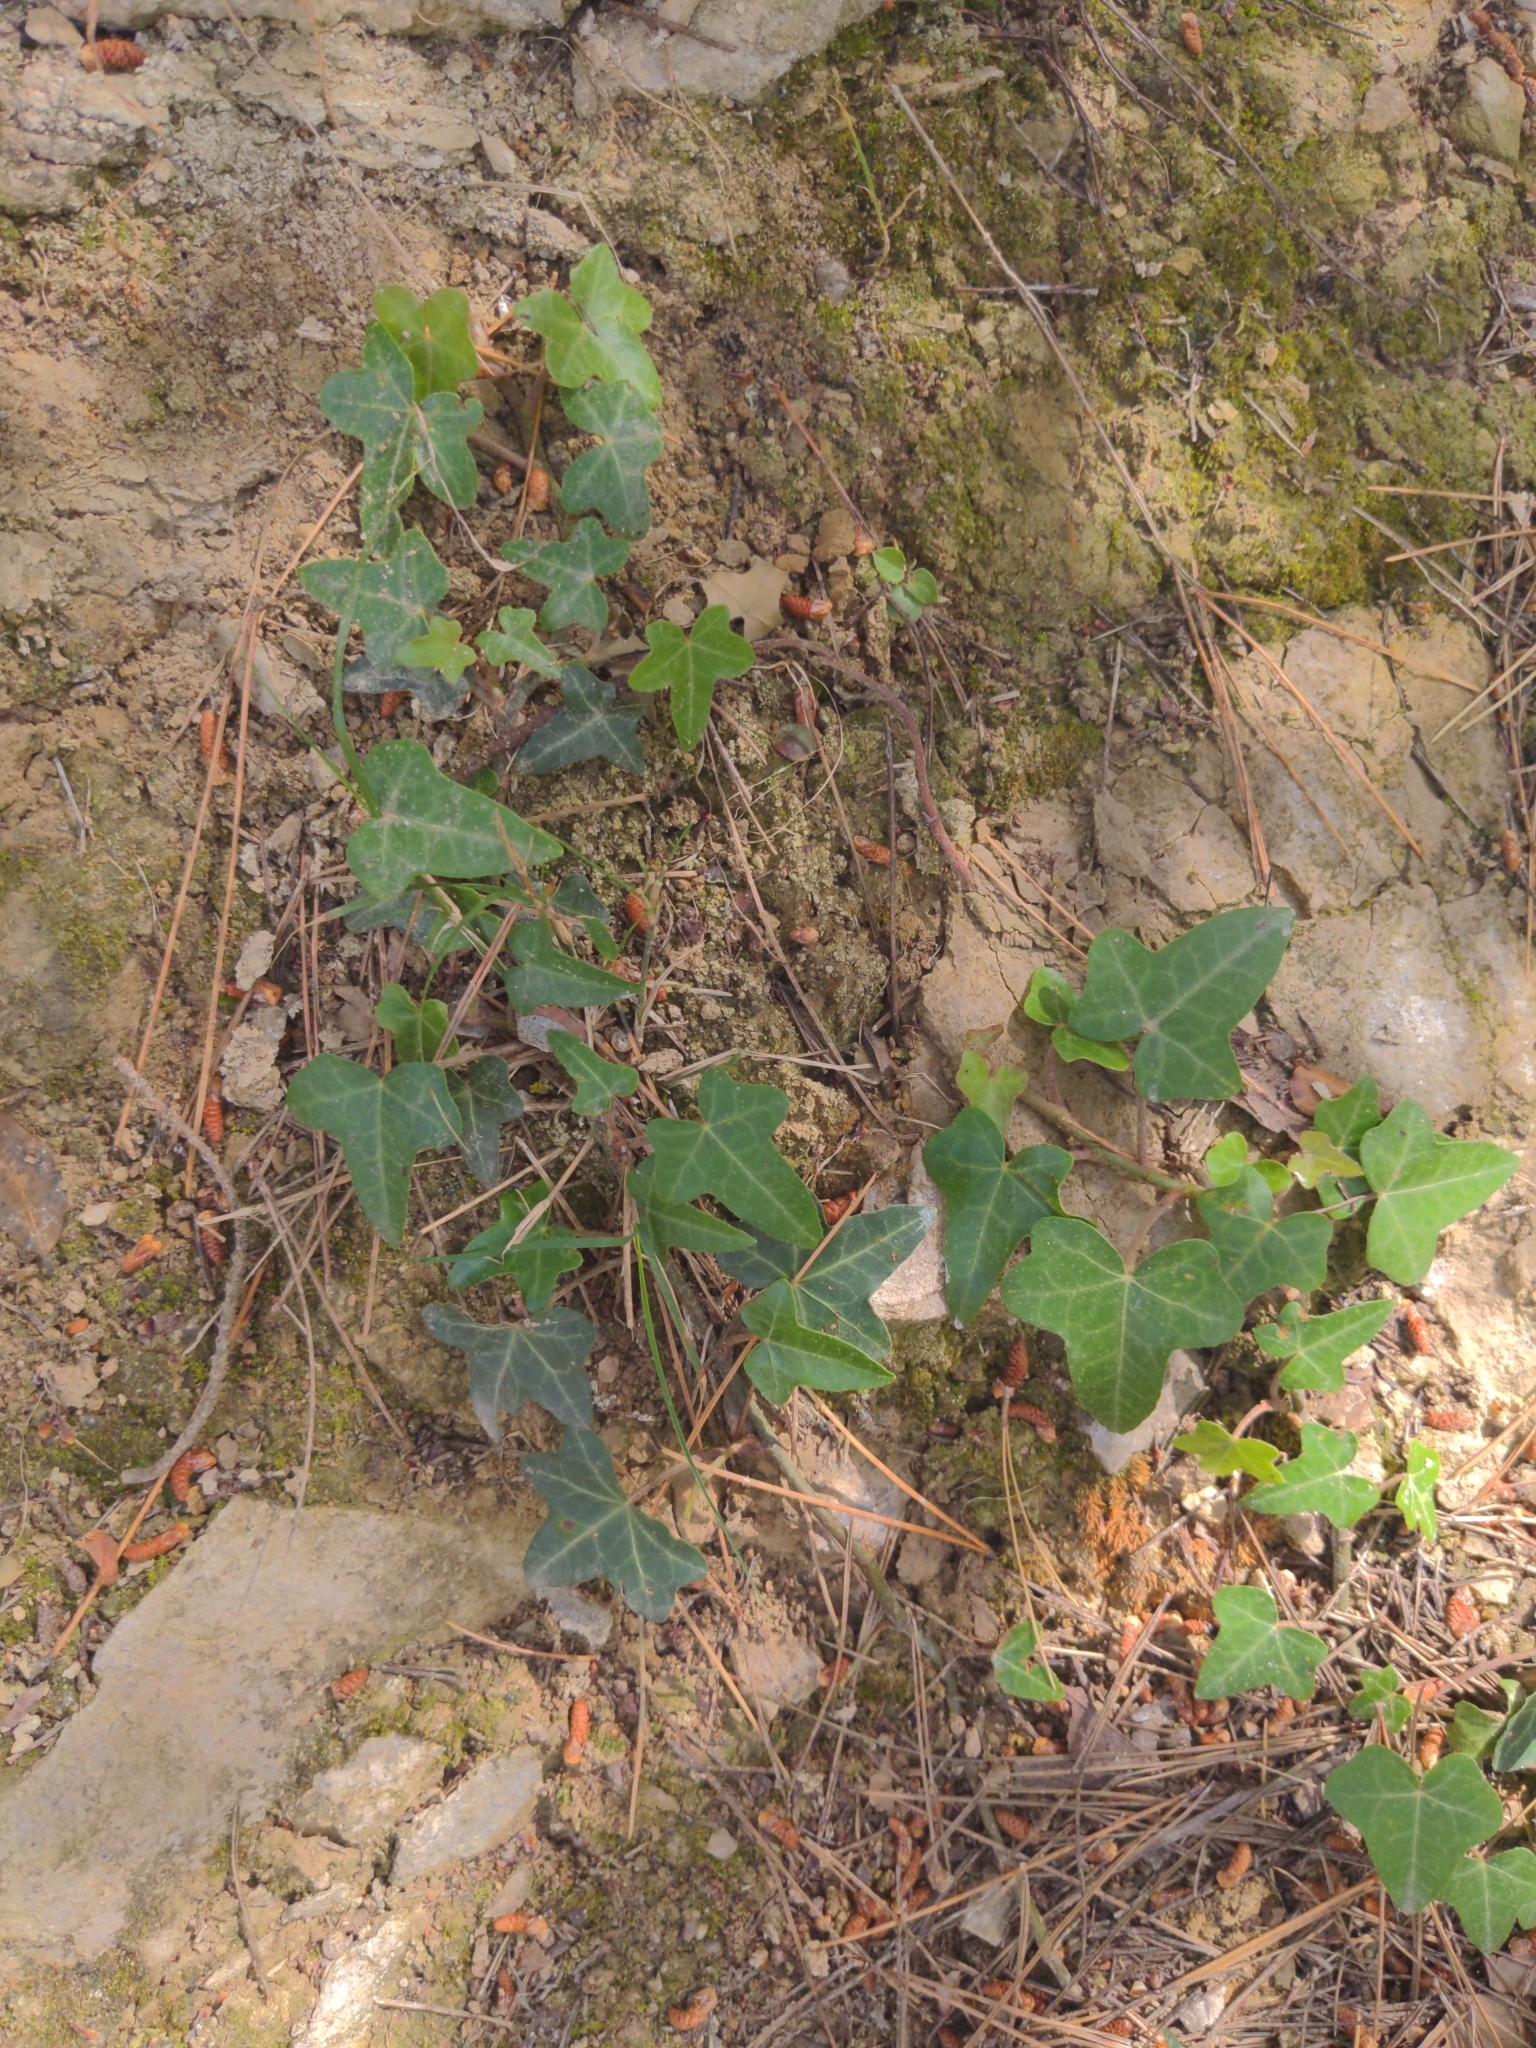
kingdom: Plantae
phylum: Tracheophyta
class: Magnoliopsida
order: Apiales
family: Araliaceae
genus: Hedera
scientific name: Hedera helix
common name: Ivy
